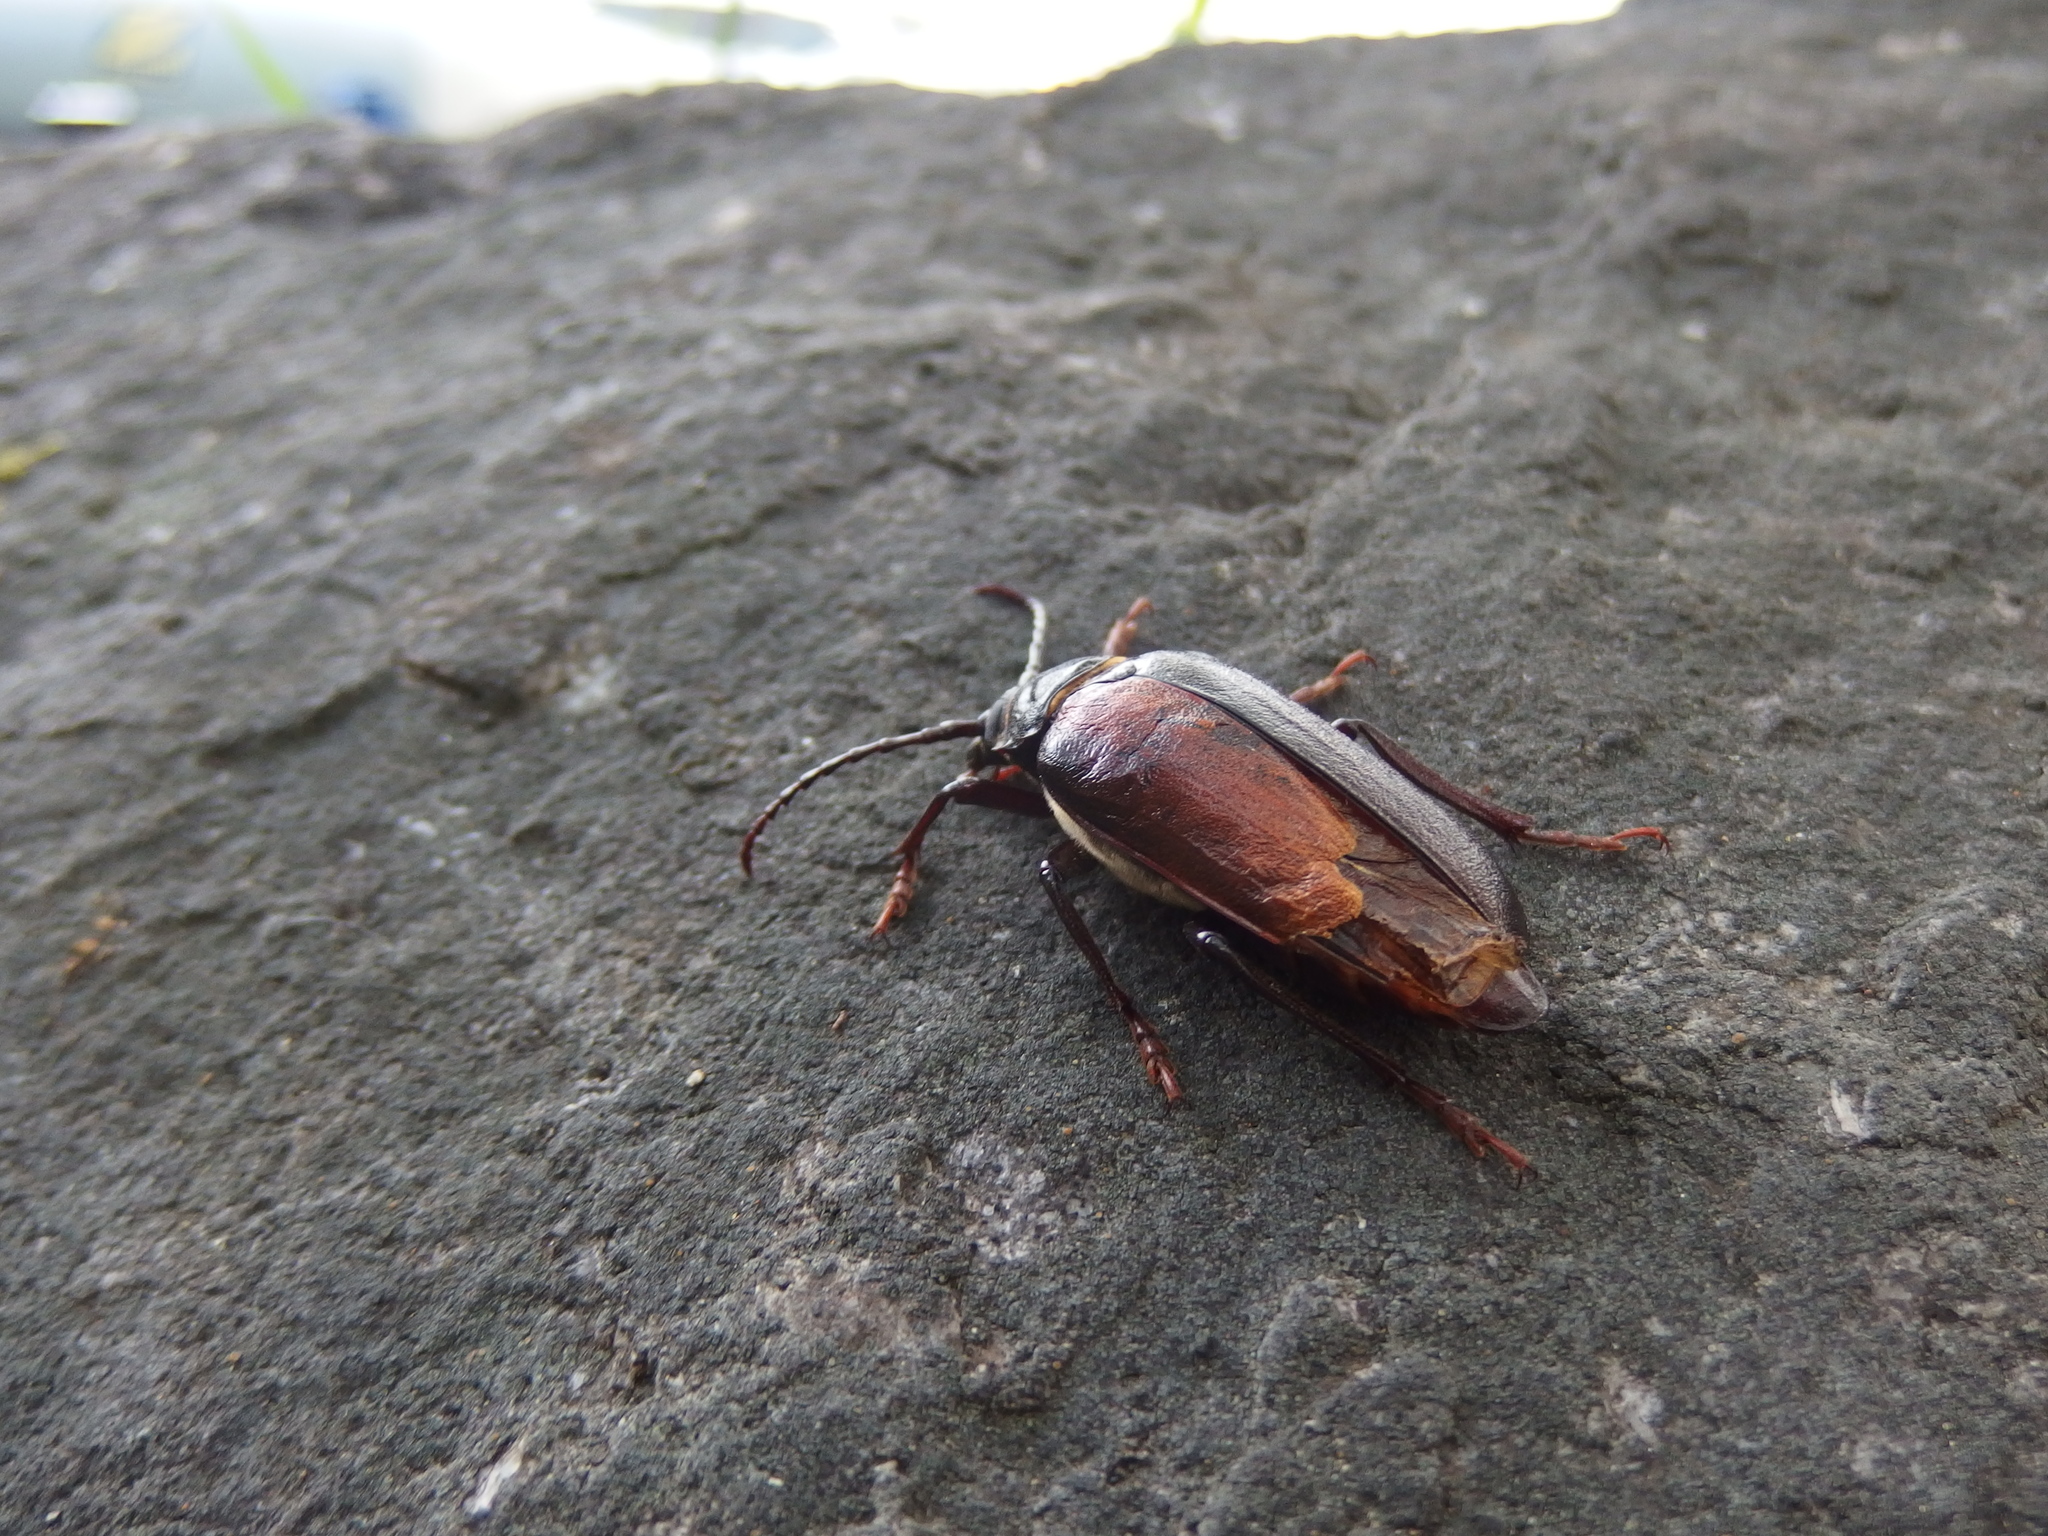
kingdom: Animalia
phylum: Arthropoda
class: Insecta
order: Coleoptera
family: Cerambycidae
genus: Prionus
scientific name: Prionus coriarius
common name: Tanner beetle
